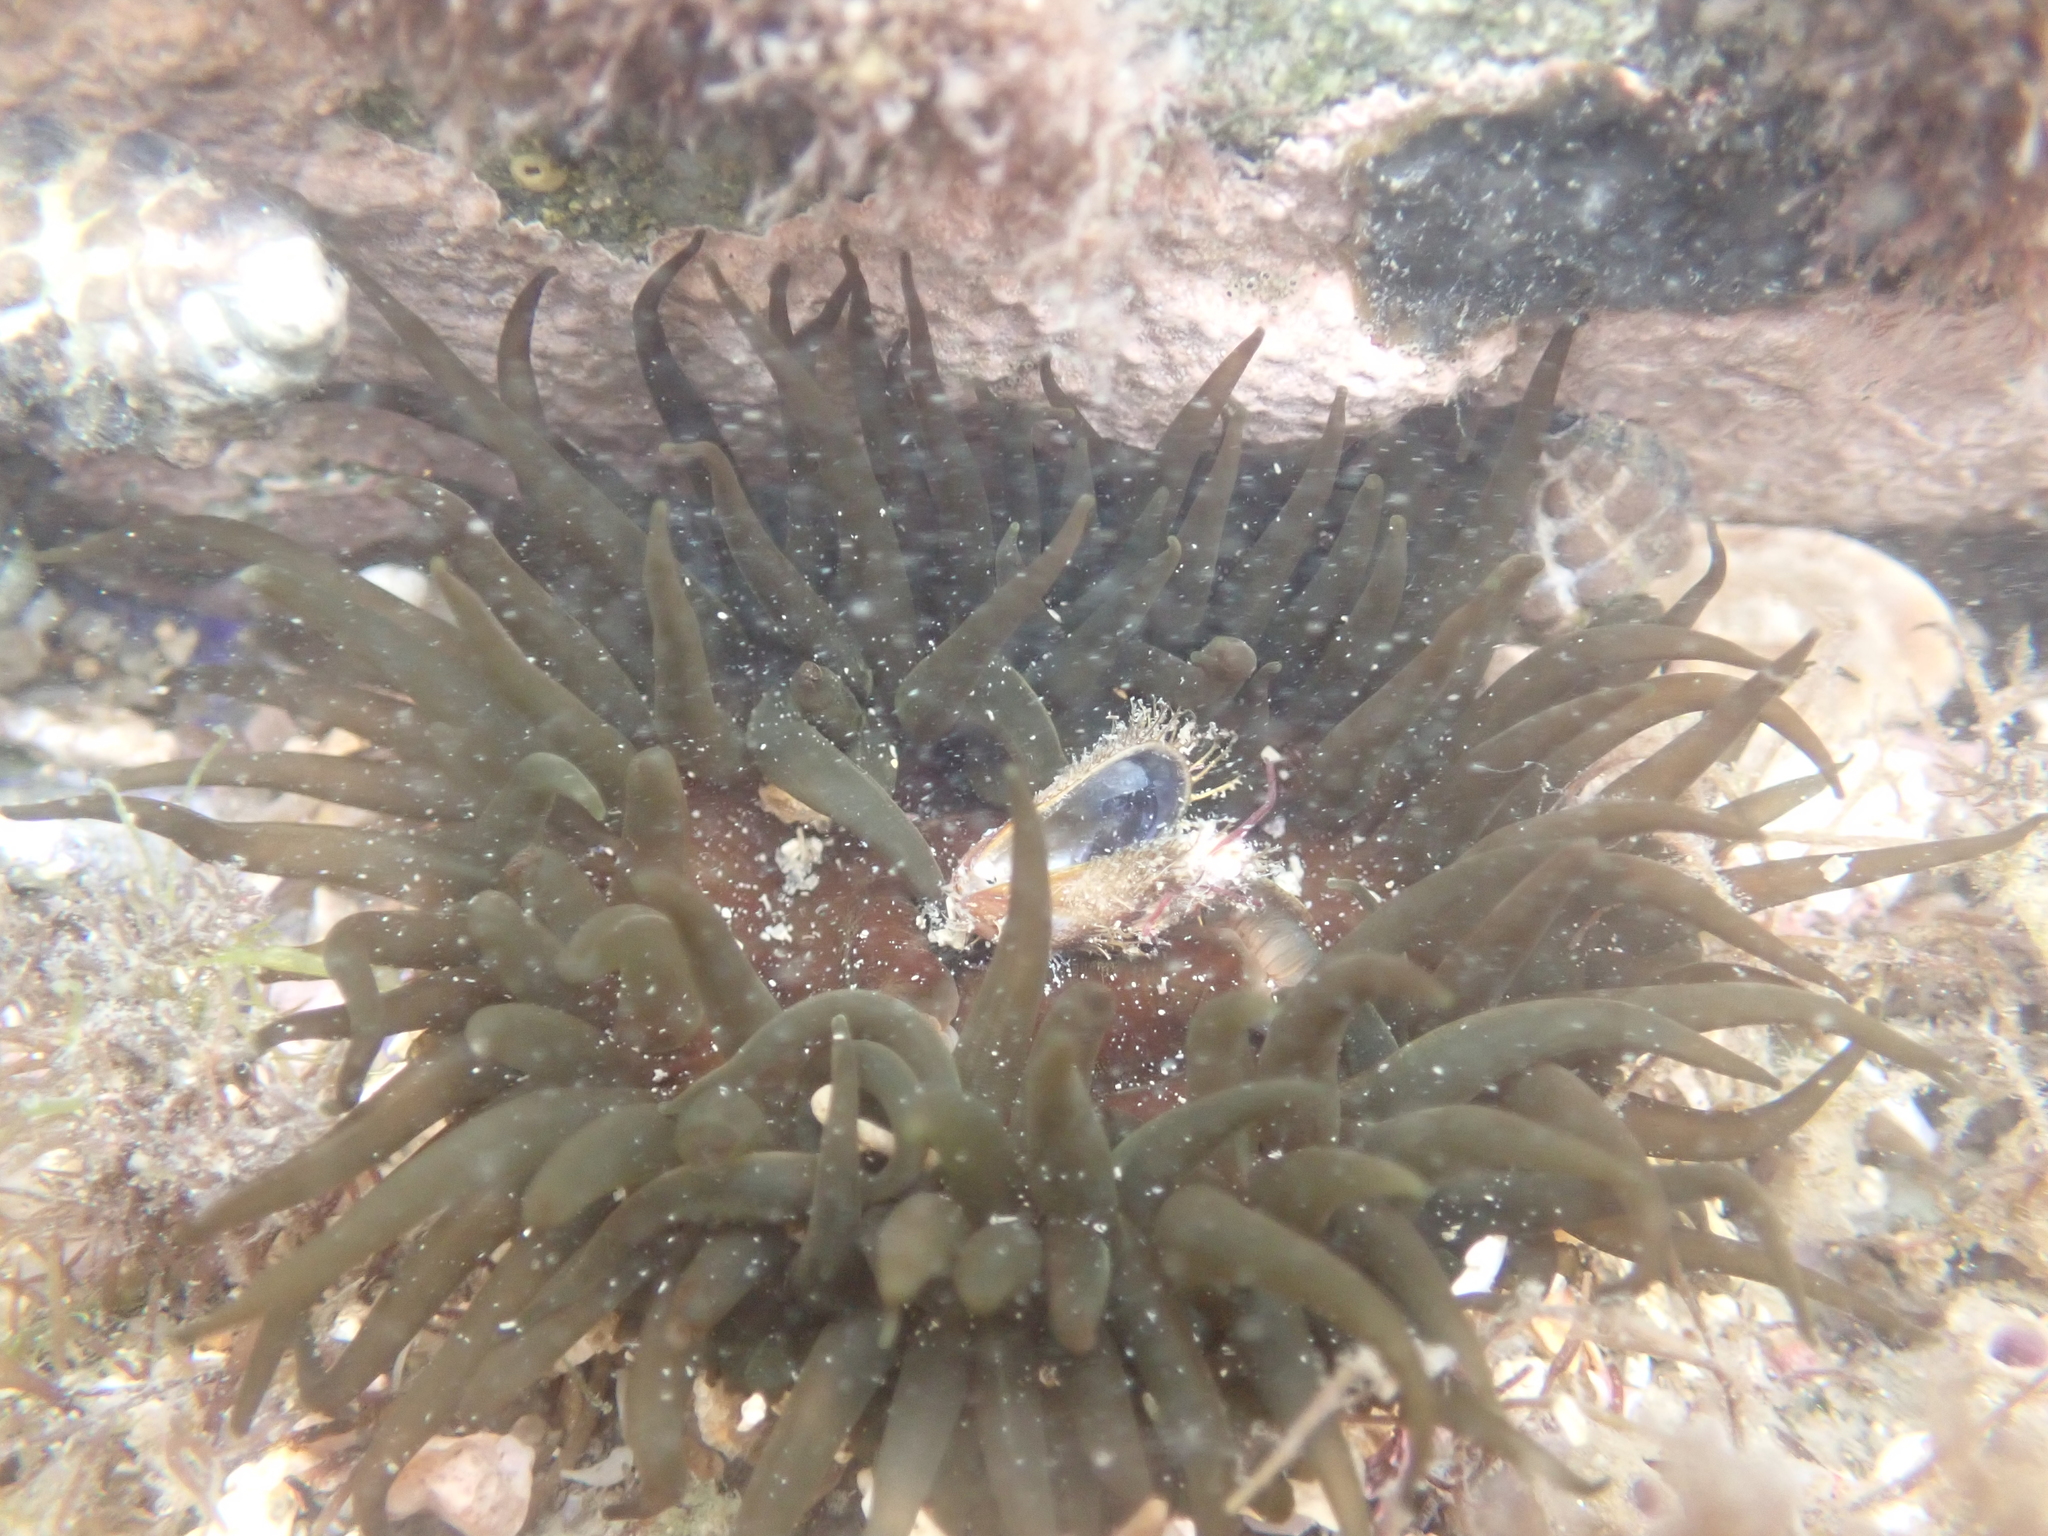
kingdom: Animalia
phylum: Cnidaria
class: Anthozoa
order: Actiniaria
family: Actiniidae
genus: Aulactinia
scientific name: Aulactinia veratra
